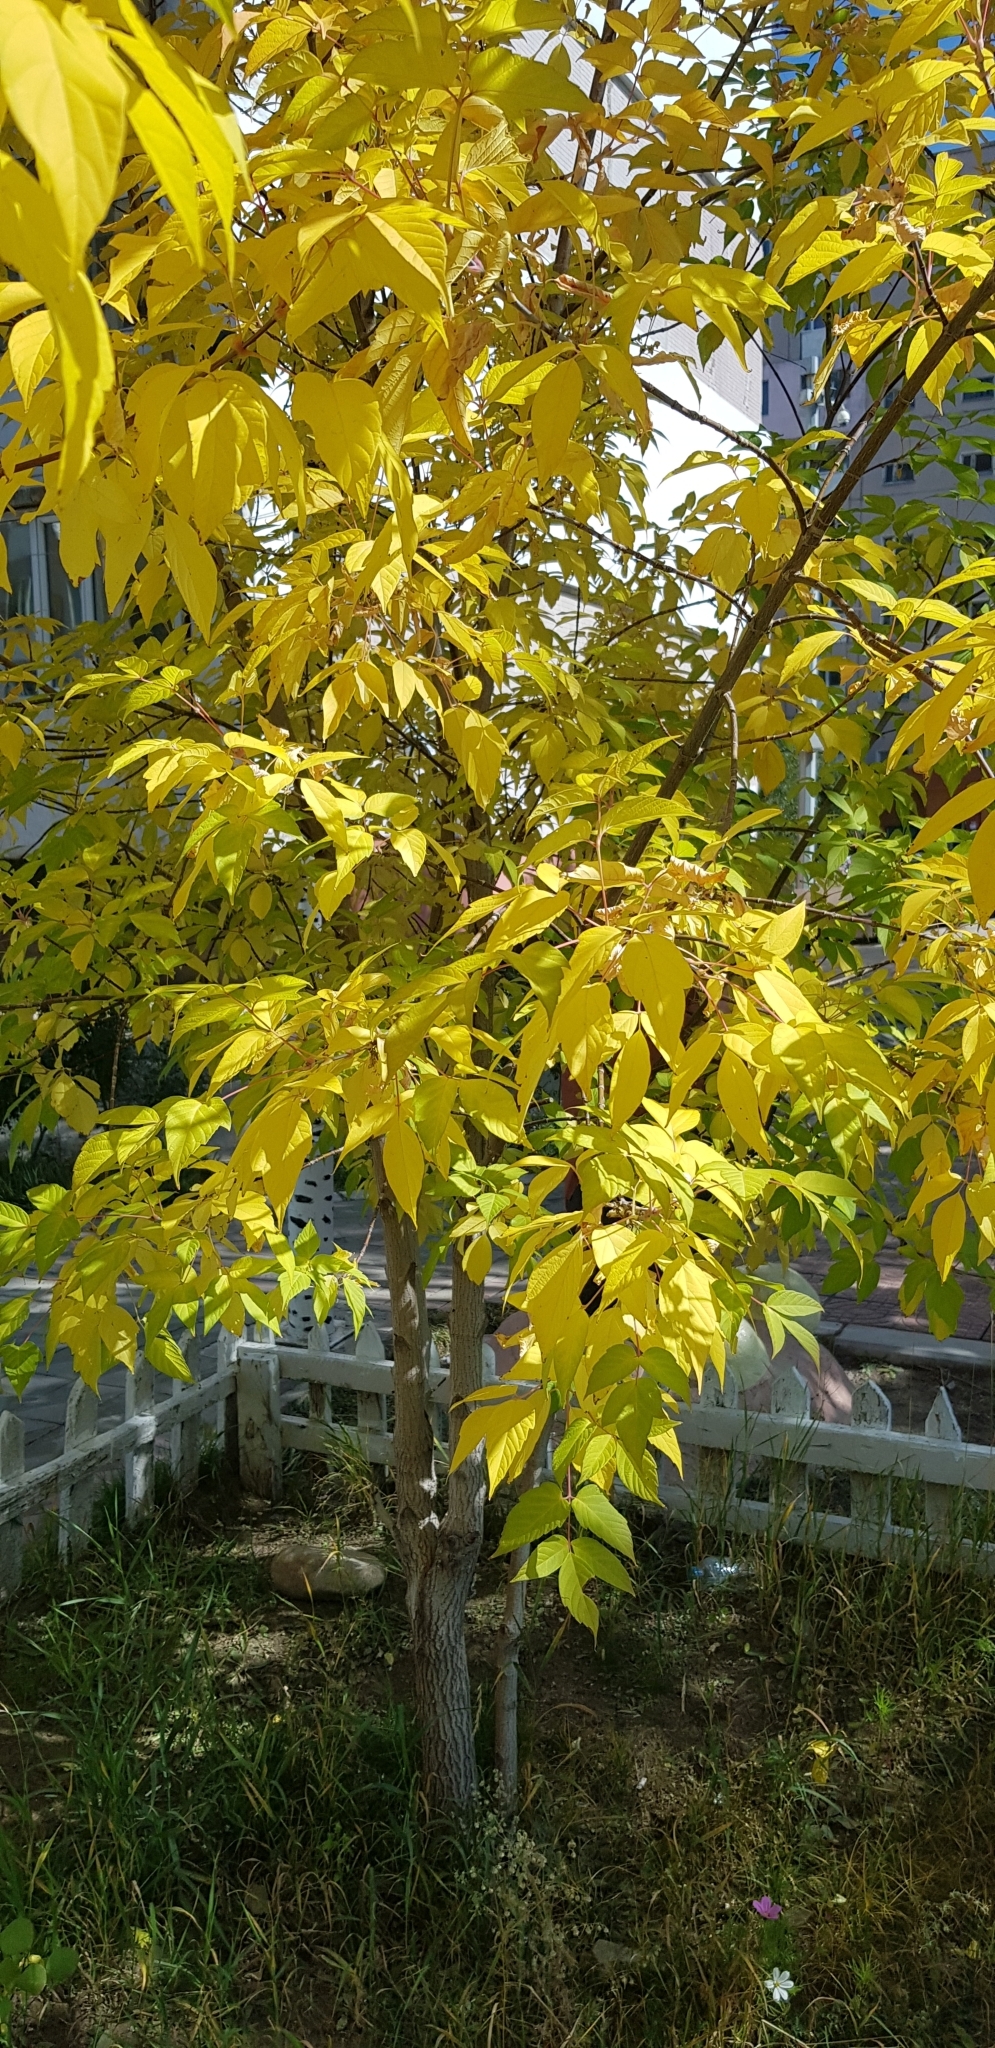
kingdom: Plantae
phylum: Tracheophyta
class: Magnoliopsida
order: Sapindales
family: Sapindaceae
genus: Acer
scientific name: Acer negundo
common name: Ashleaf maple
